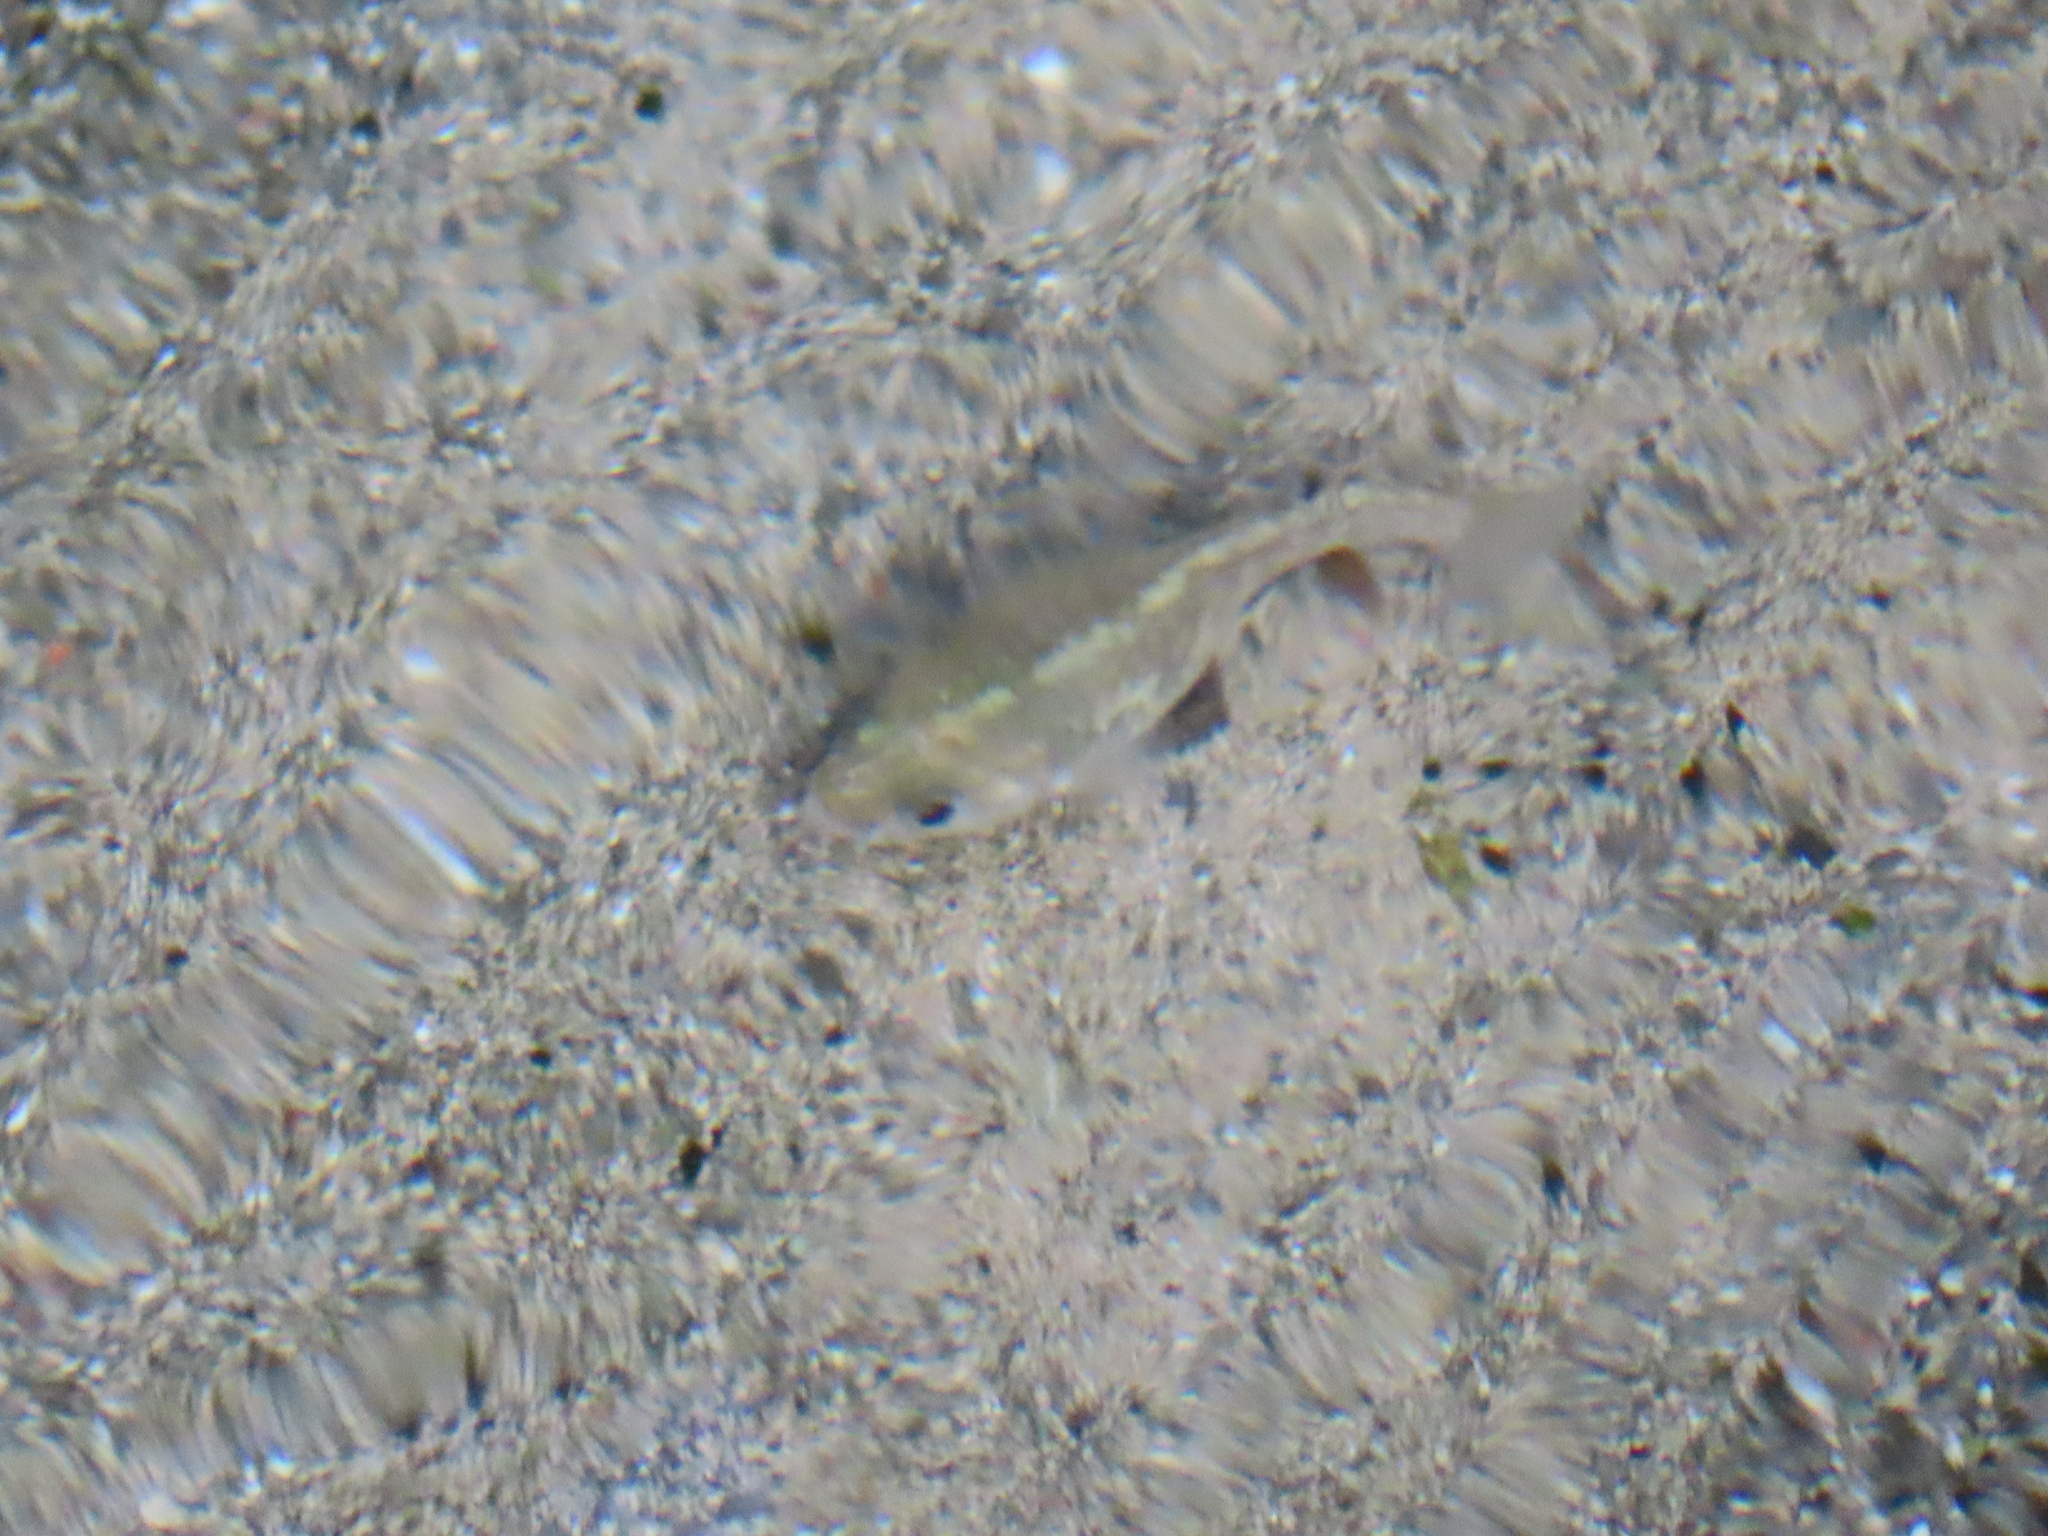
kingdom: Animalia
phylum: Chordata
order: Cyprinodontiformes
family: Cyprinodontidae
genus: Cyprinodon
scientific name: Cyprinodon nevadensis
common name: Amargosa pupfish
